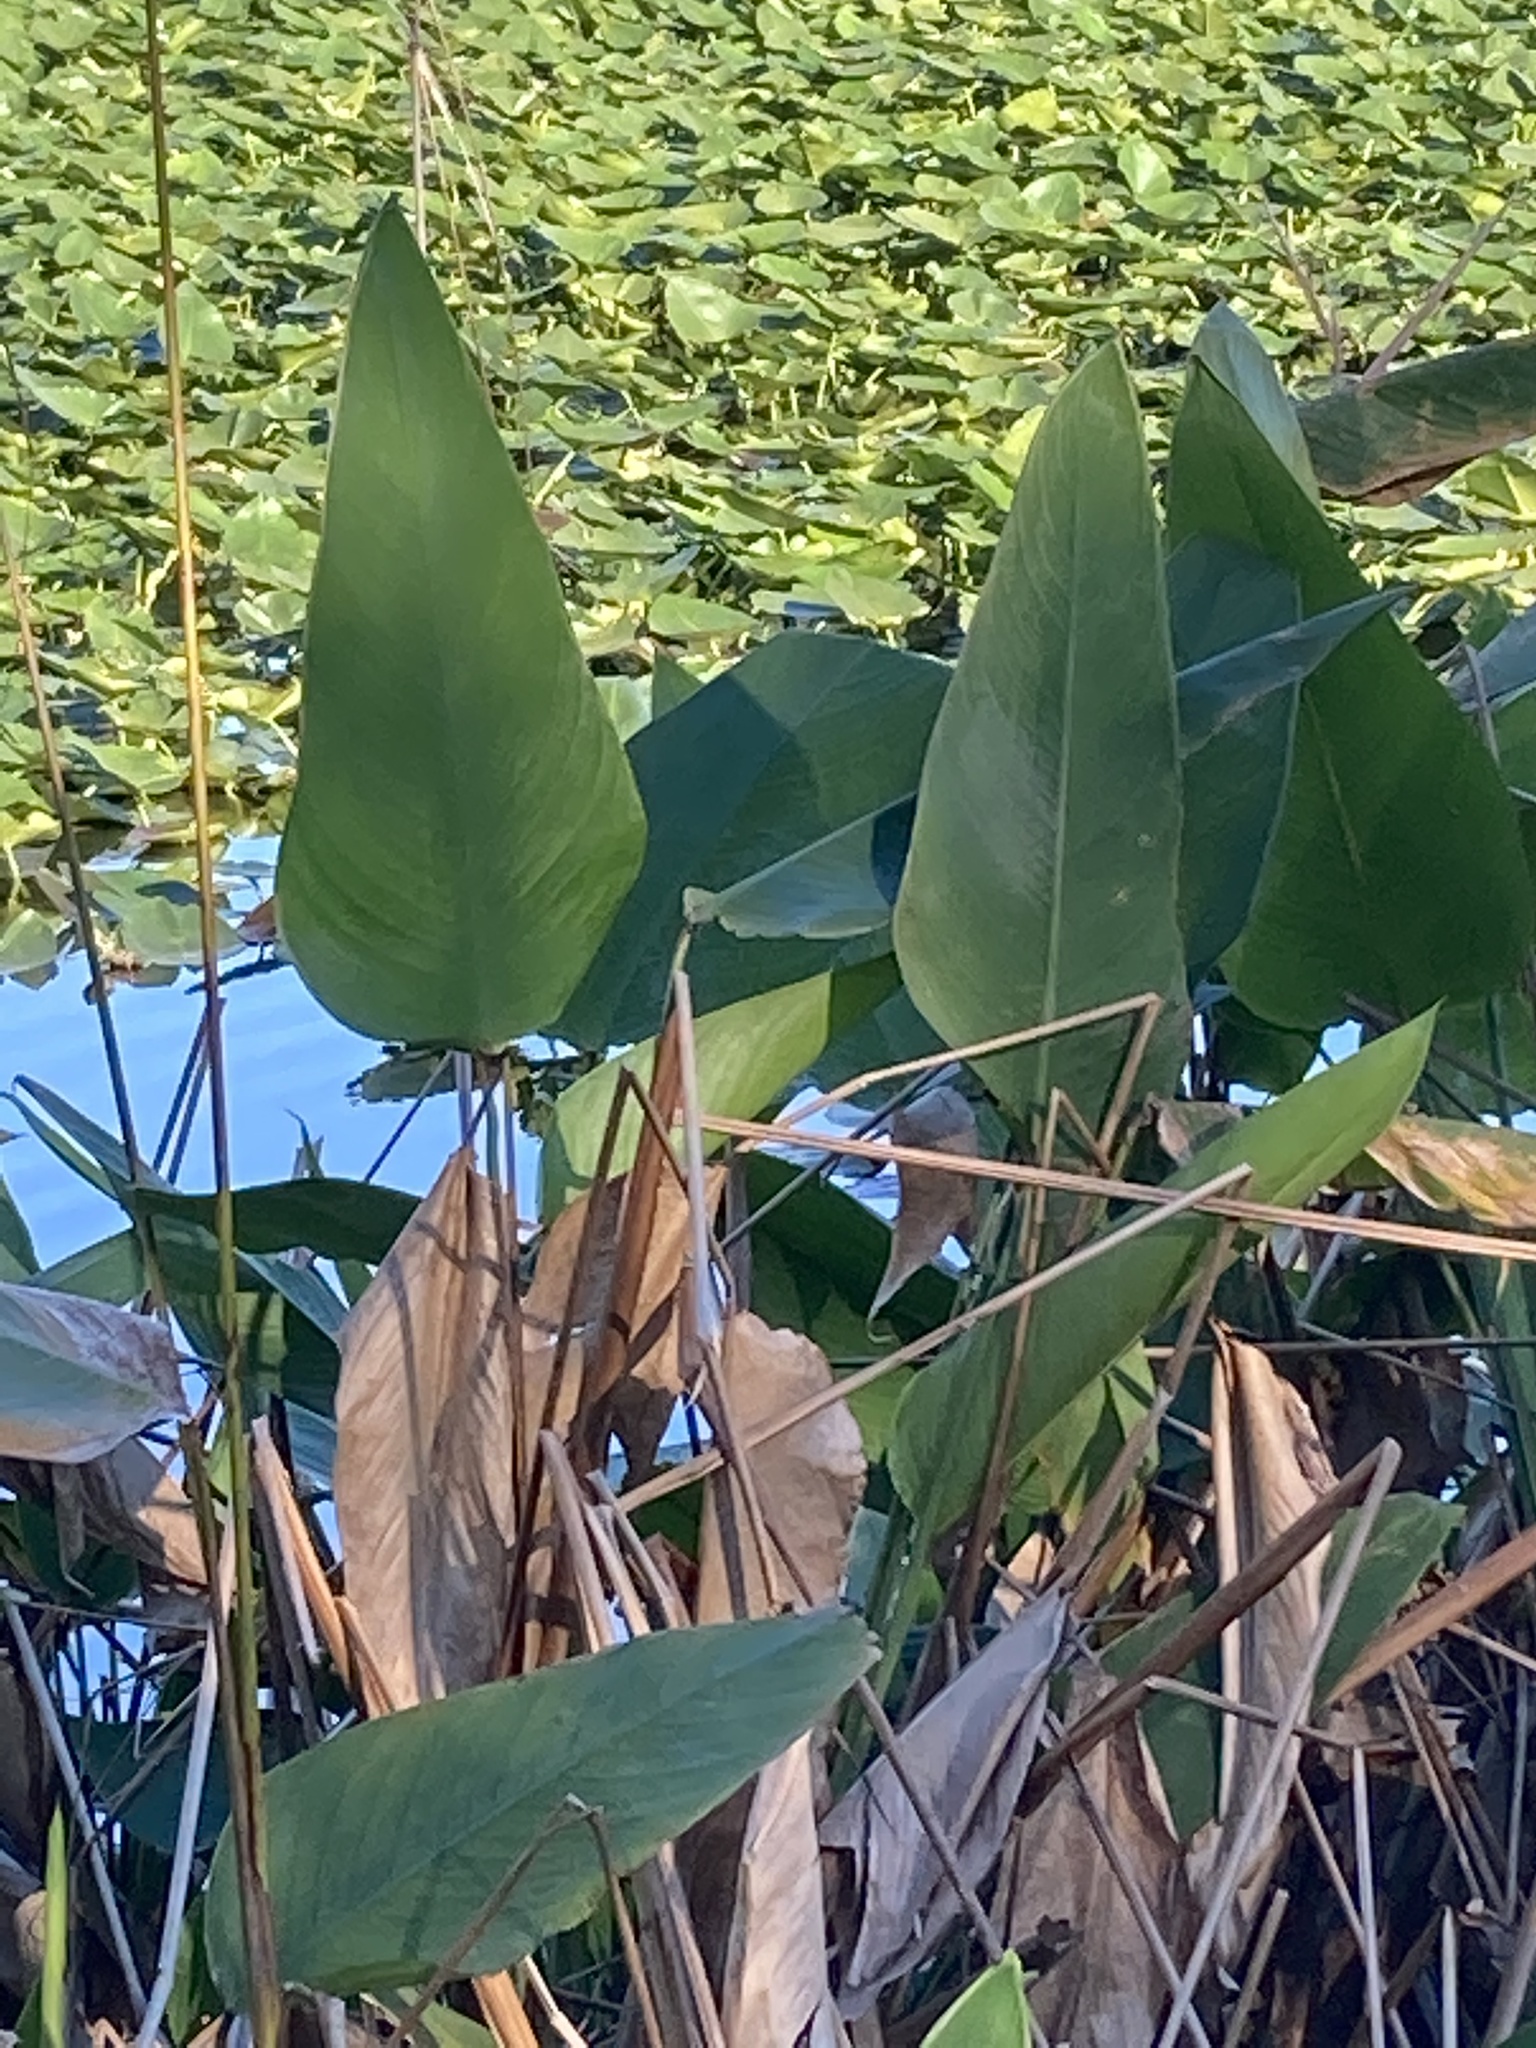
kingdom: Plantae
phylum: Tracheophyta
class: Liliopsida
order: Zingiberales
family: Marantaceae
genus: Thalia
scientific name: Thalia geniculata
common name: Arrowroot
